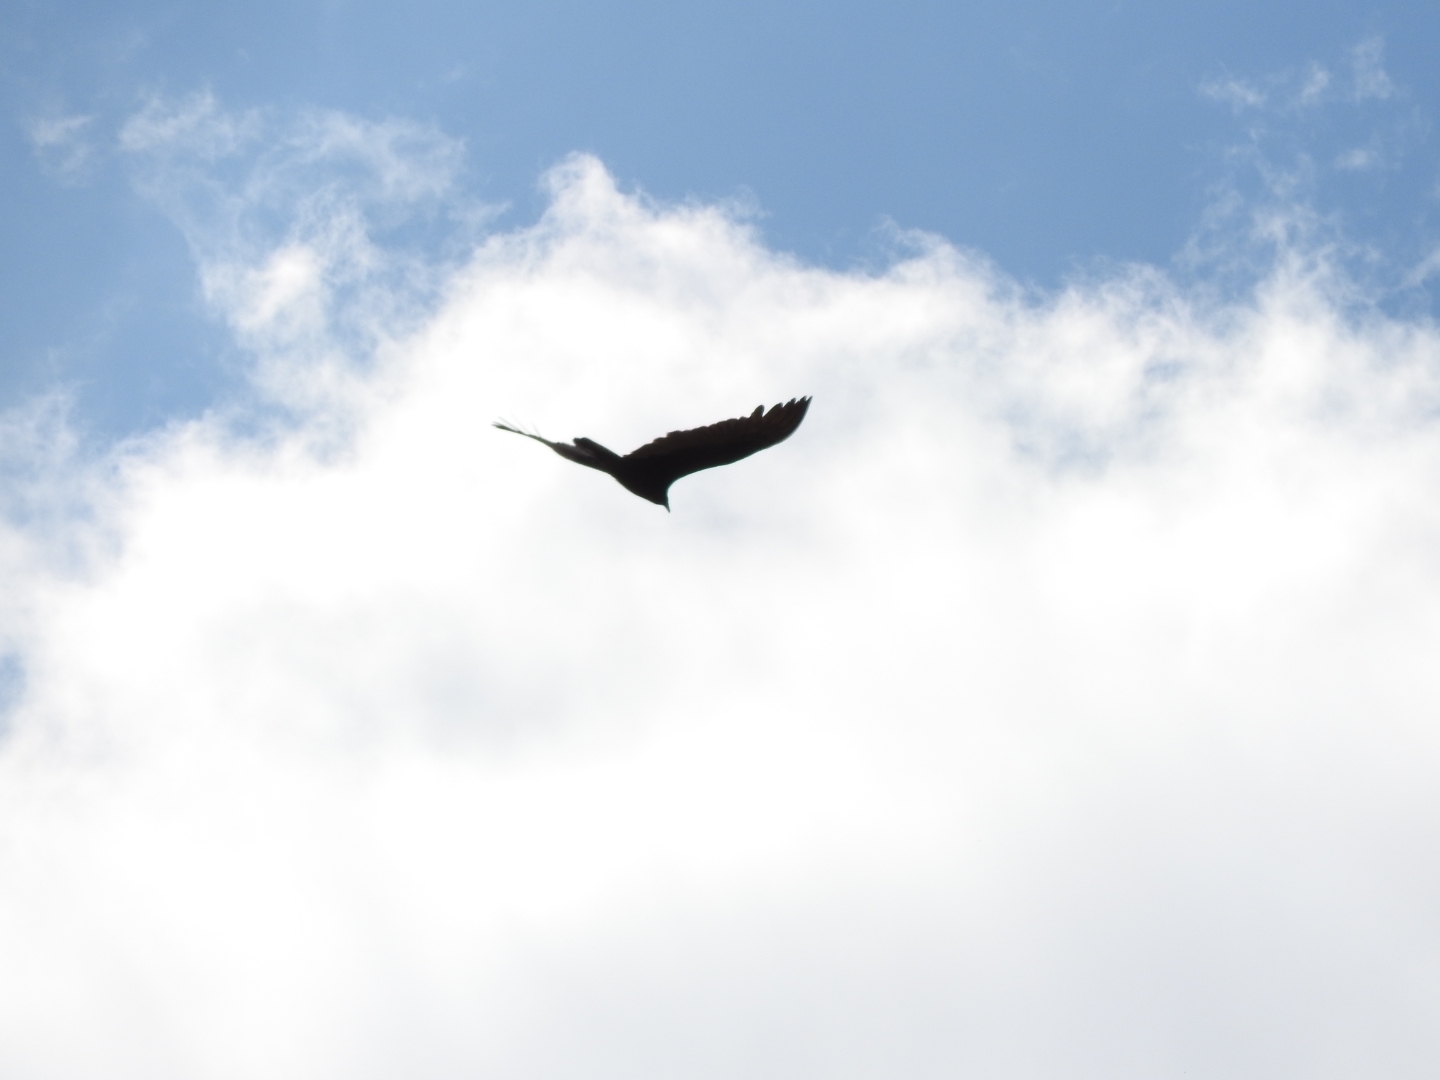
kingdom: Animalia
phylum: Chordata
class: Aves
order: Accipitriformes
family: Cathartidae
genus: Cathartes
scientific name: Cathartes aura
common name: Turkey vulture
